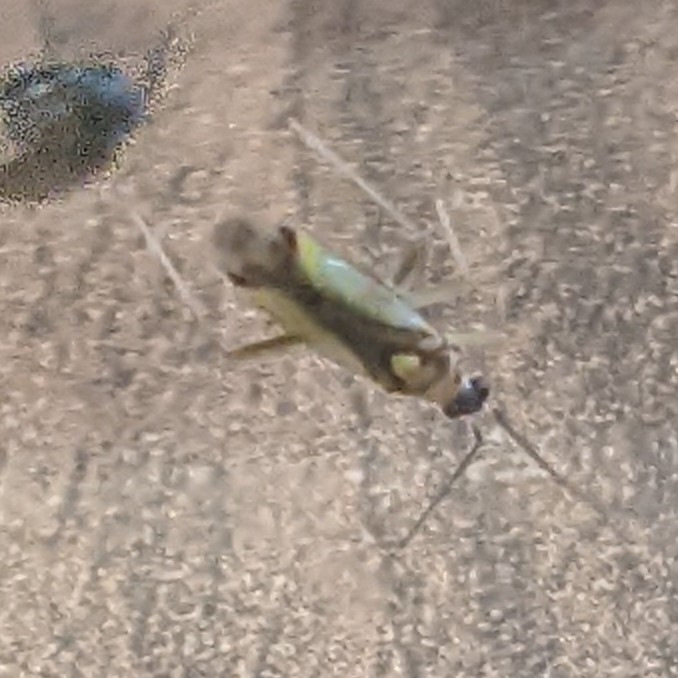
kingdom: Animalia
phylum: Arthropoda
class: Insecta
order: Hemiptera
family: Miridae
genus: Campyloneura
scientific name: Campyloneura virgula
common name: Predatory bug
